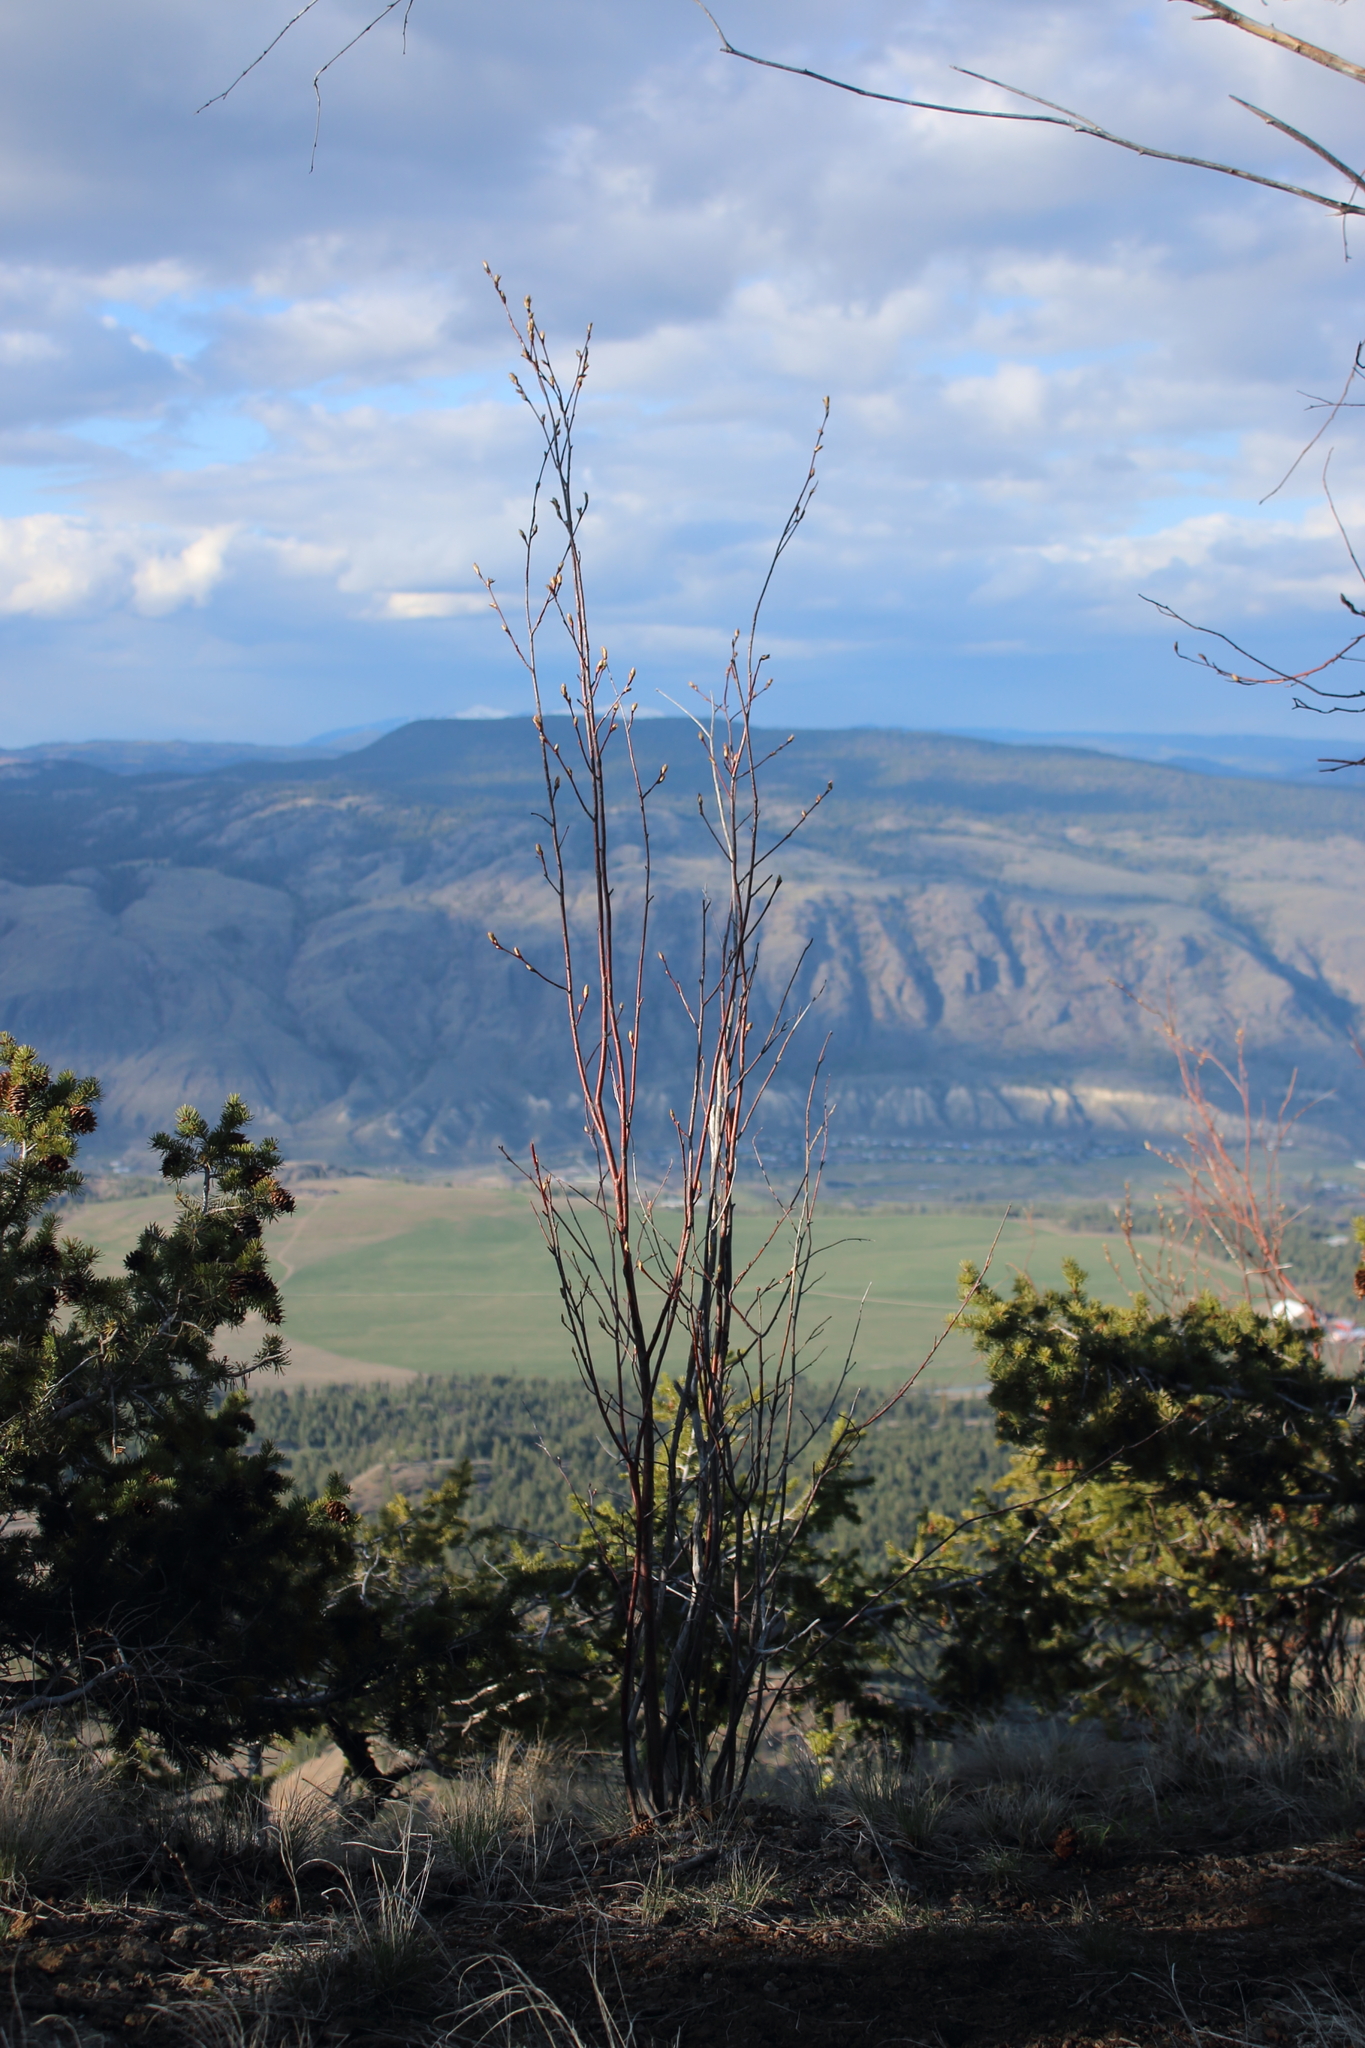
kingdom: Plantae
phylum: Tracheophyta
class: Magnoliopsida
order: Rosales
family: Rosaceae
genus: Amelanchier
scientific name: Amelanchier alnifolia
